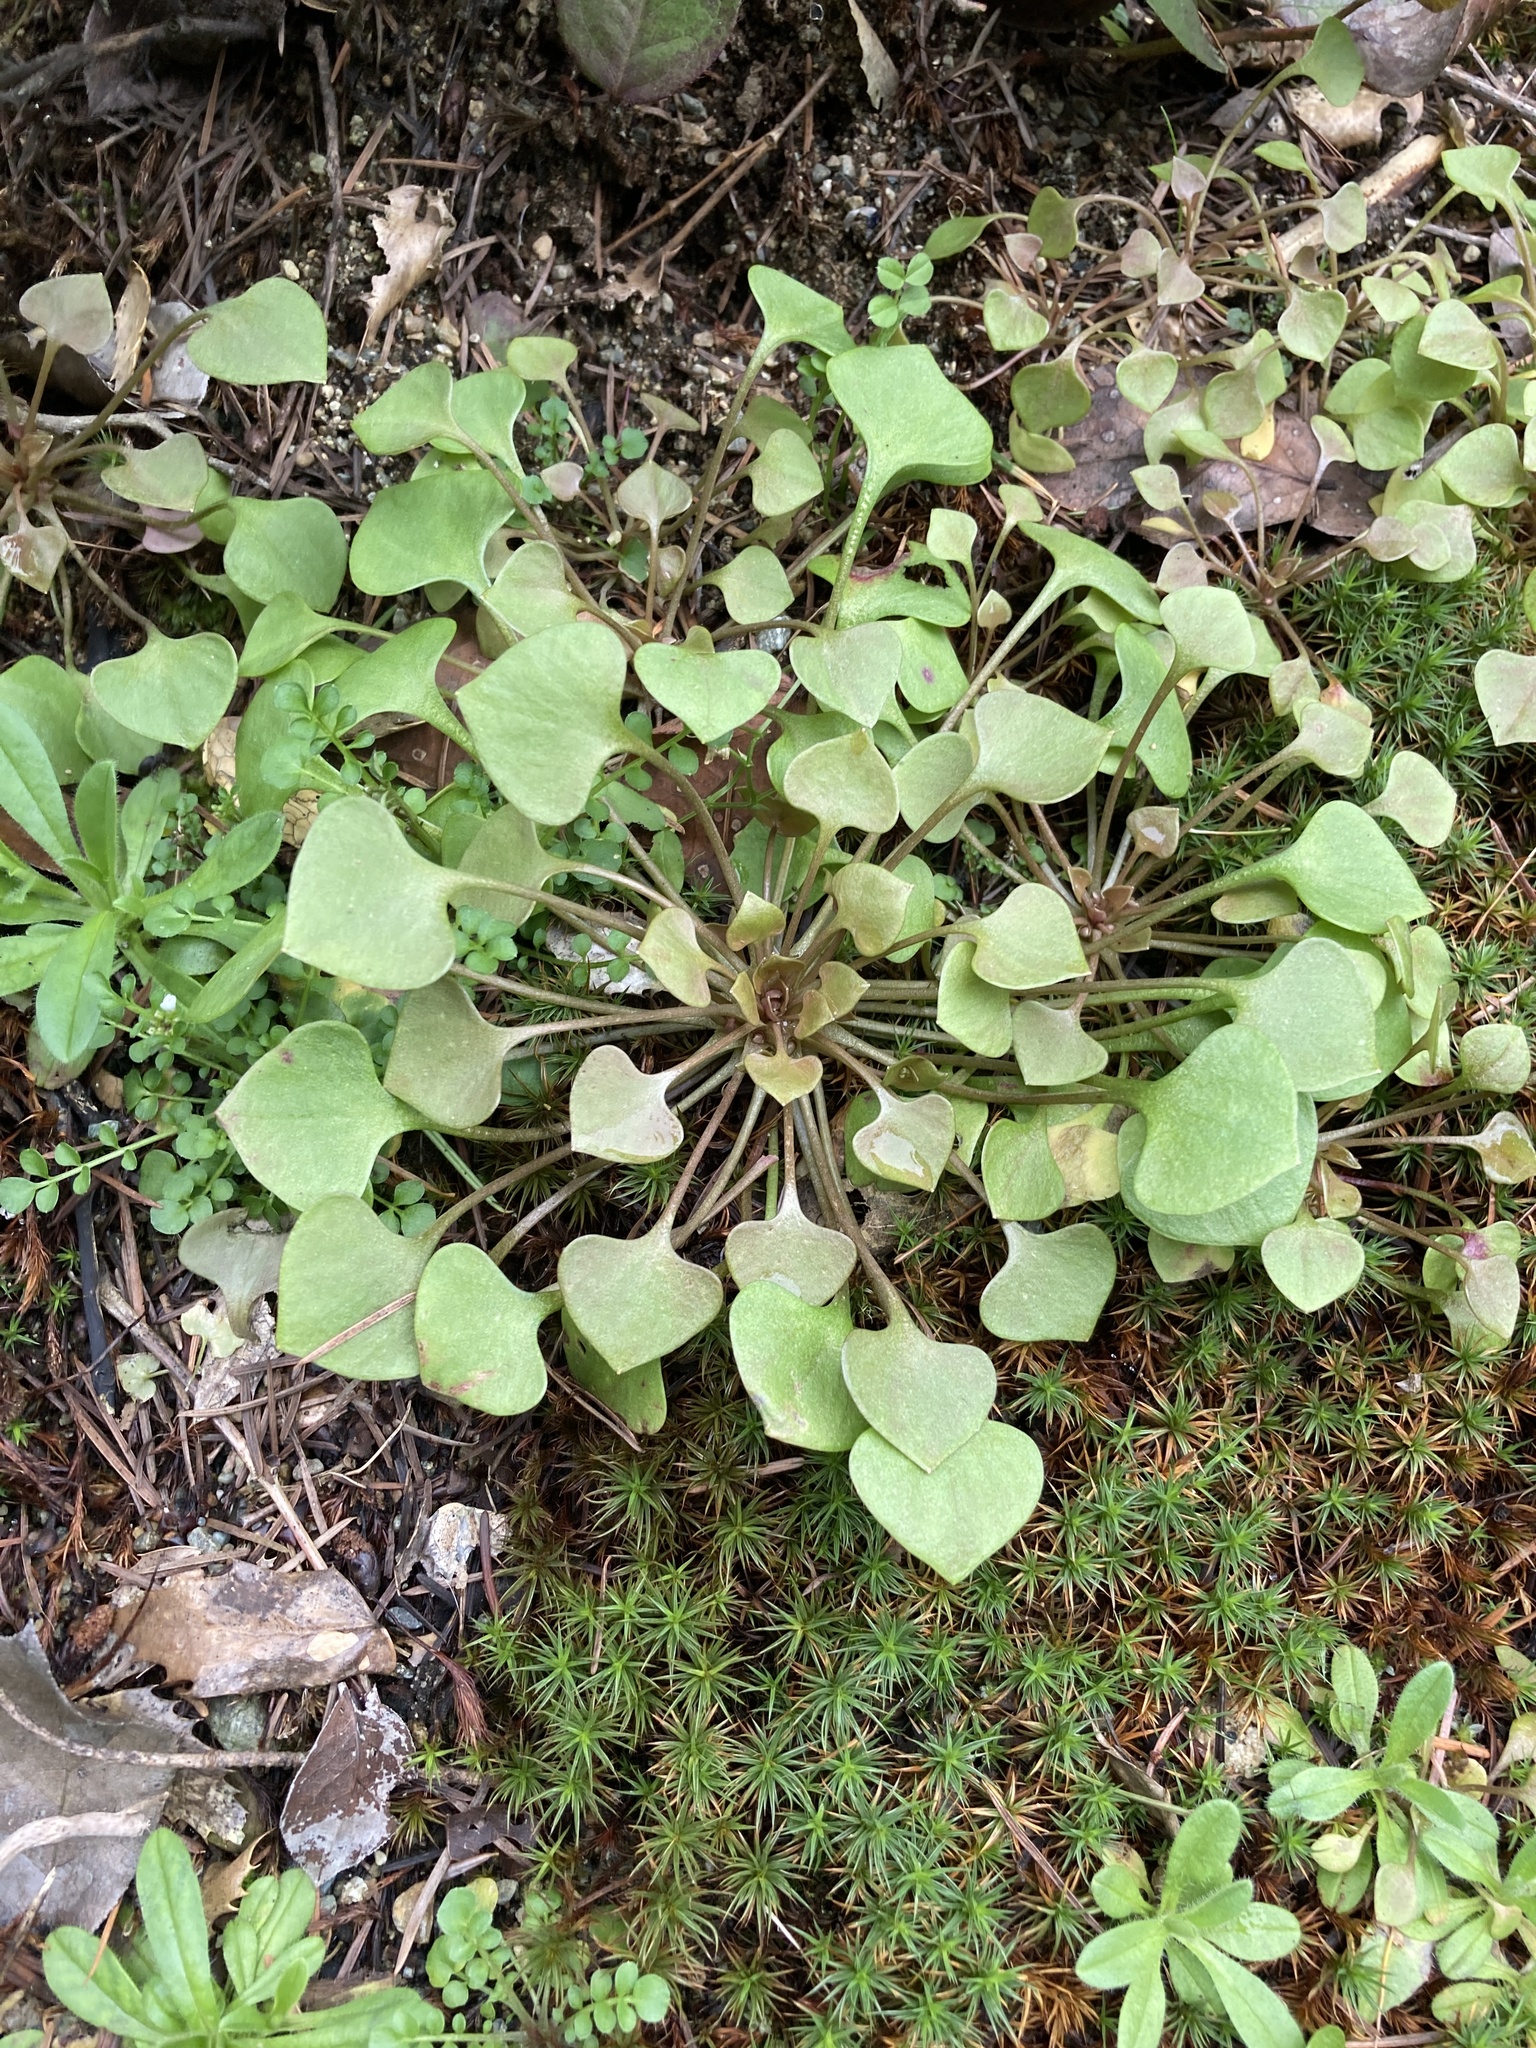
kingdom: Plantae
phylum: Tracheophyta
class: Magnoliopsida
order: Caryophyllales
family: Montiaceae
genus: Claytonia
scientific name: Claytonia perfoliata
